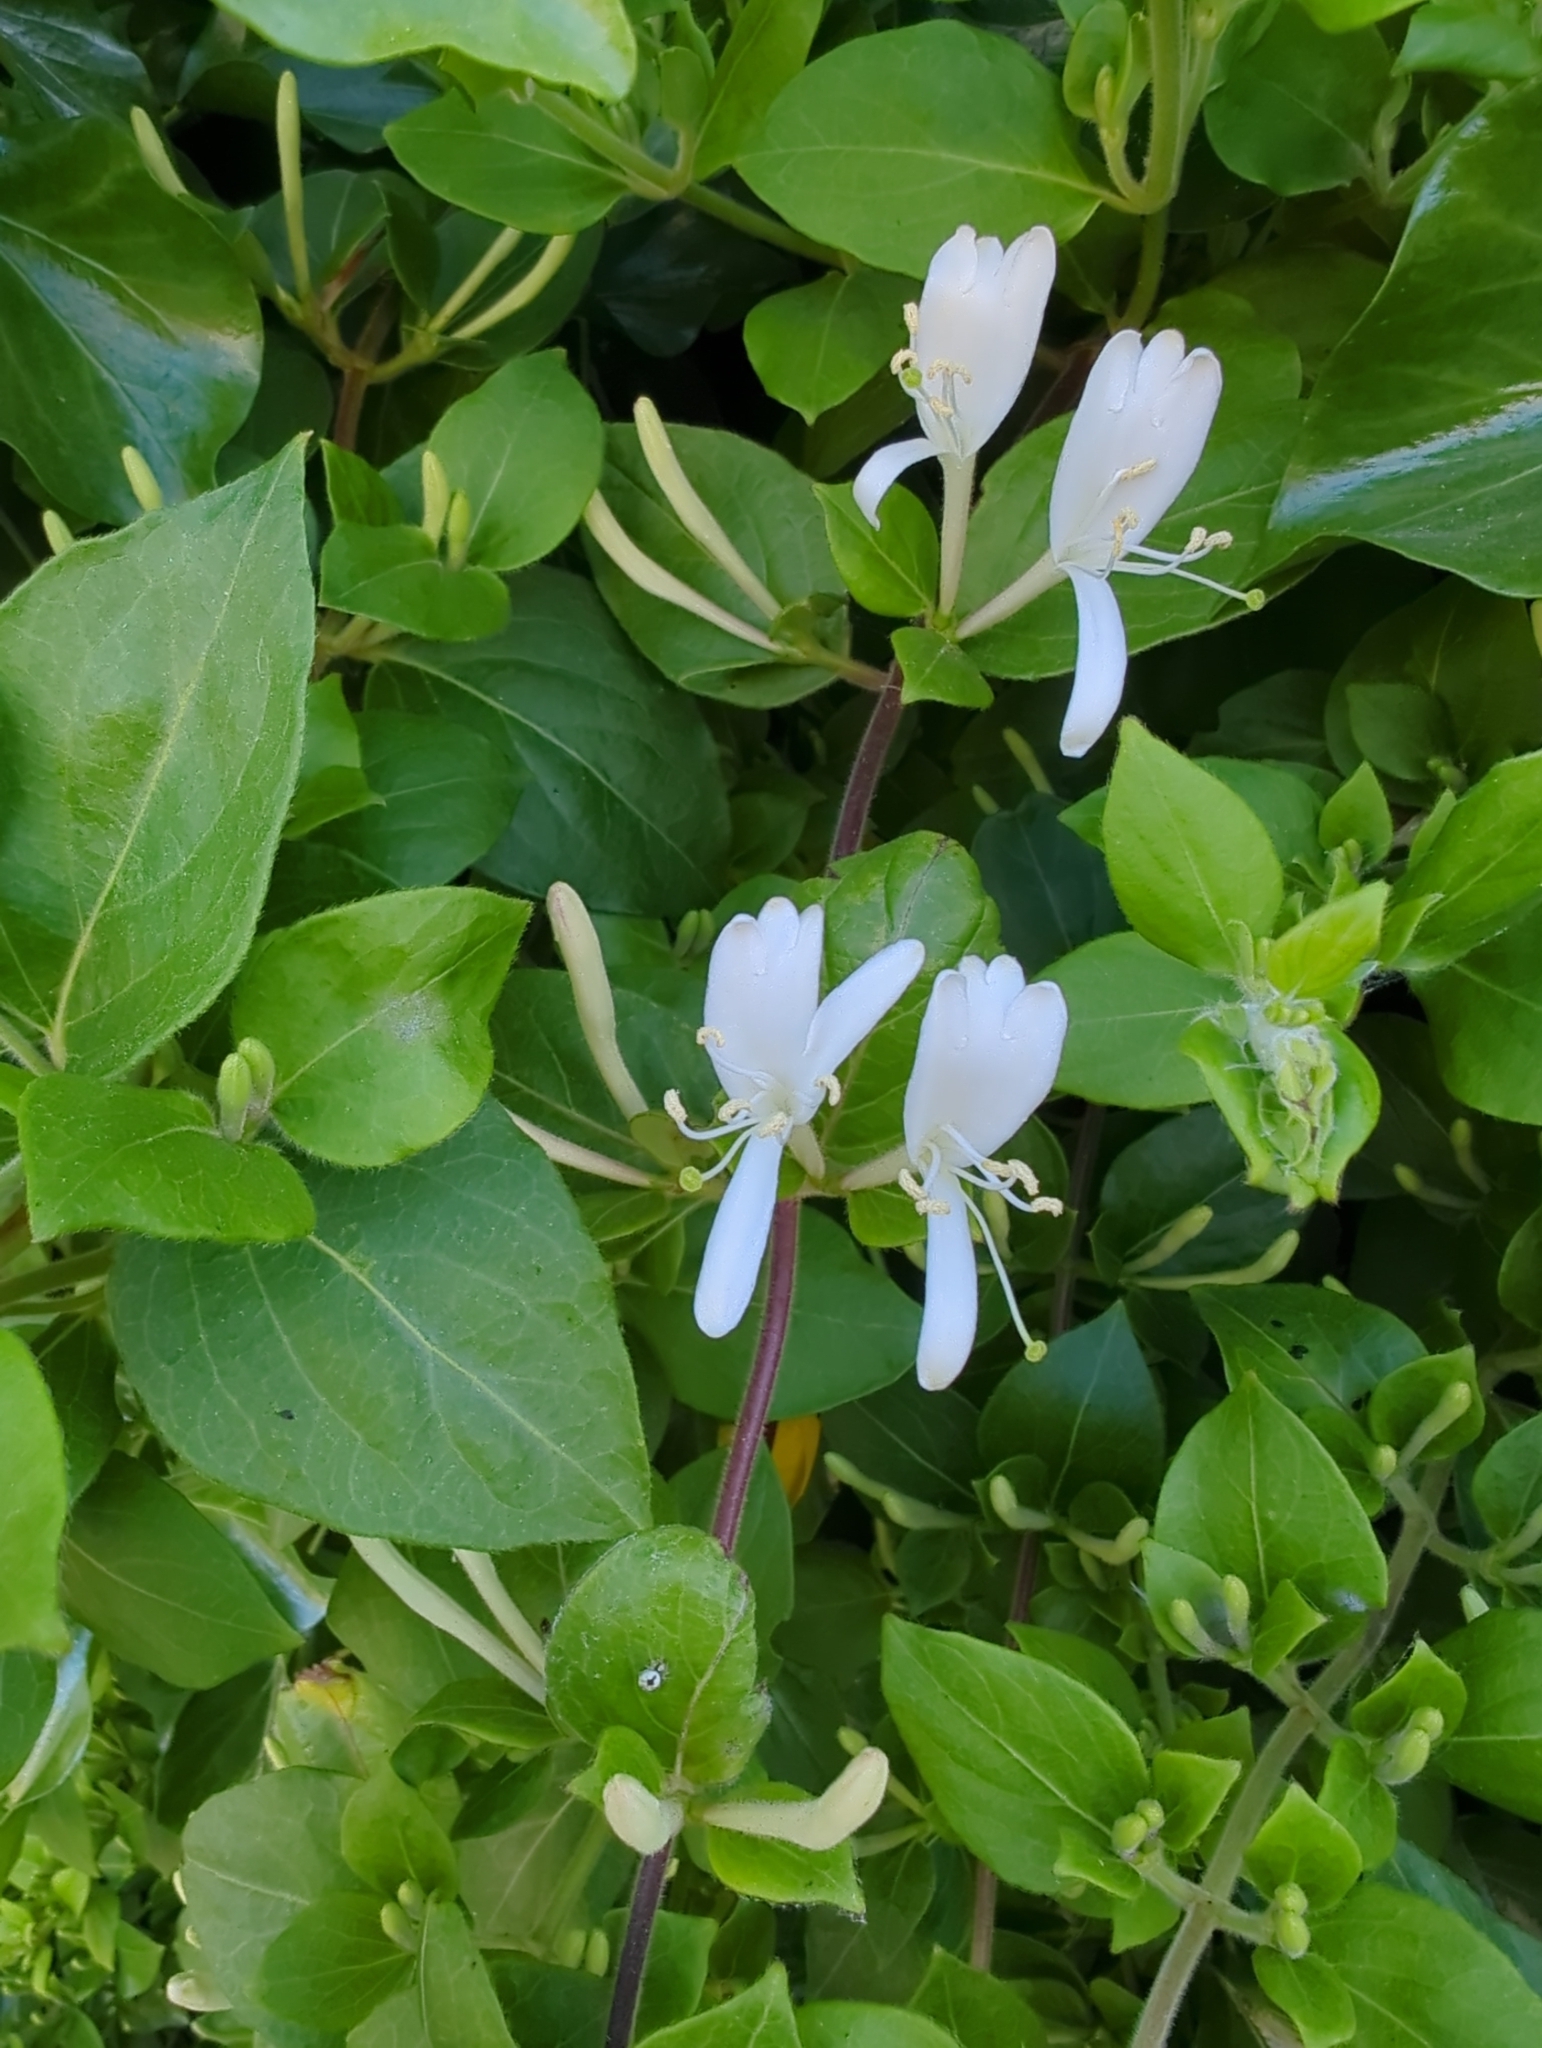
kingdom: Plantae
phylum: Tracheophyta
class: Magnoliopsida
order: Dipsacales
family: Caprifoliaceae
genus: Lonicera
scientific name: Lonicera japonica
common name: Japanese honeysuckle
